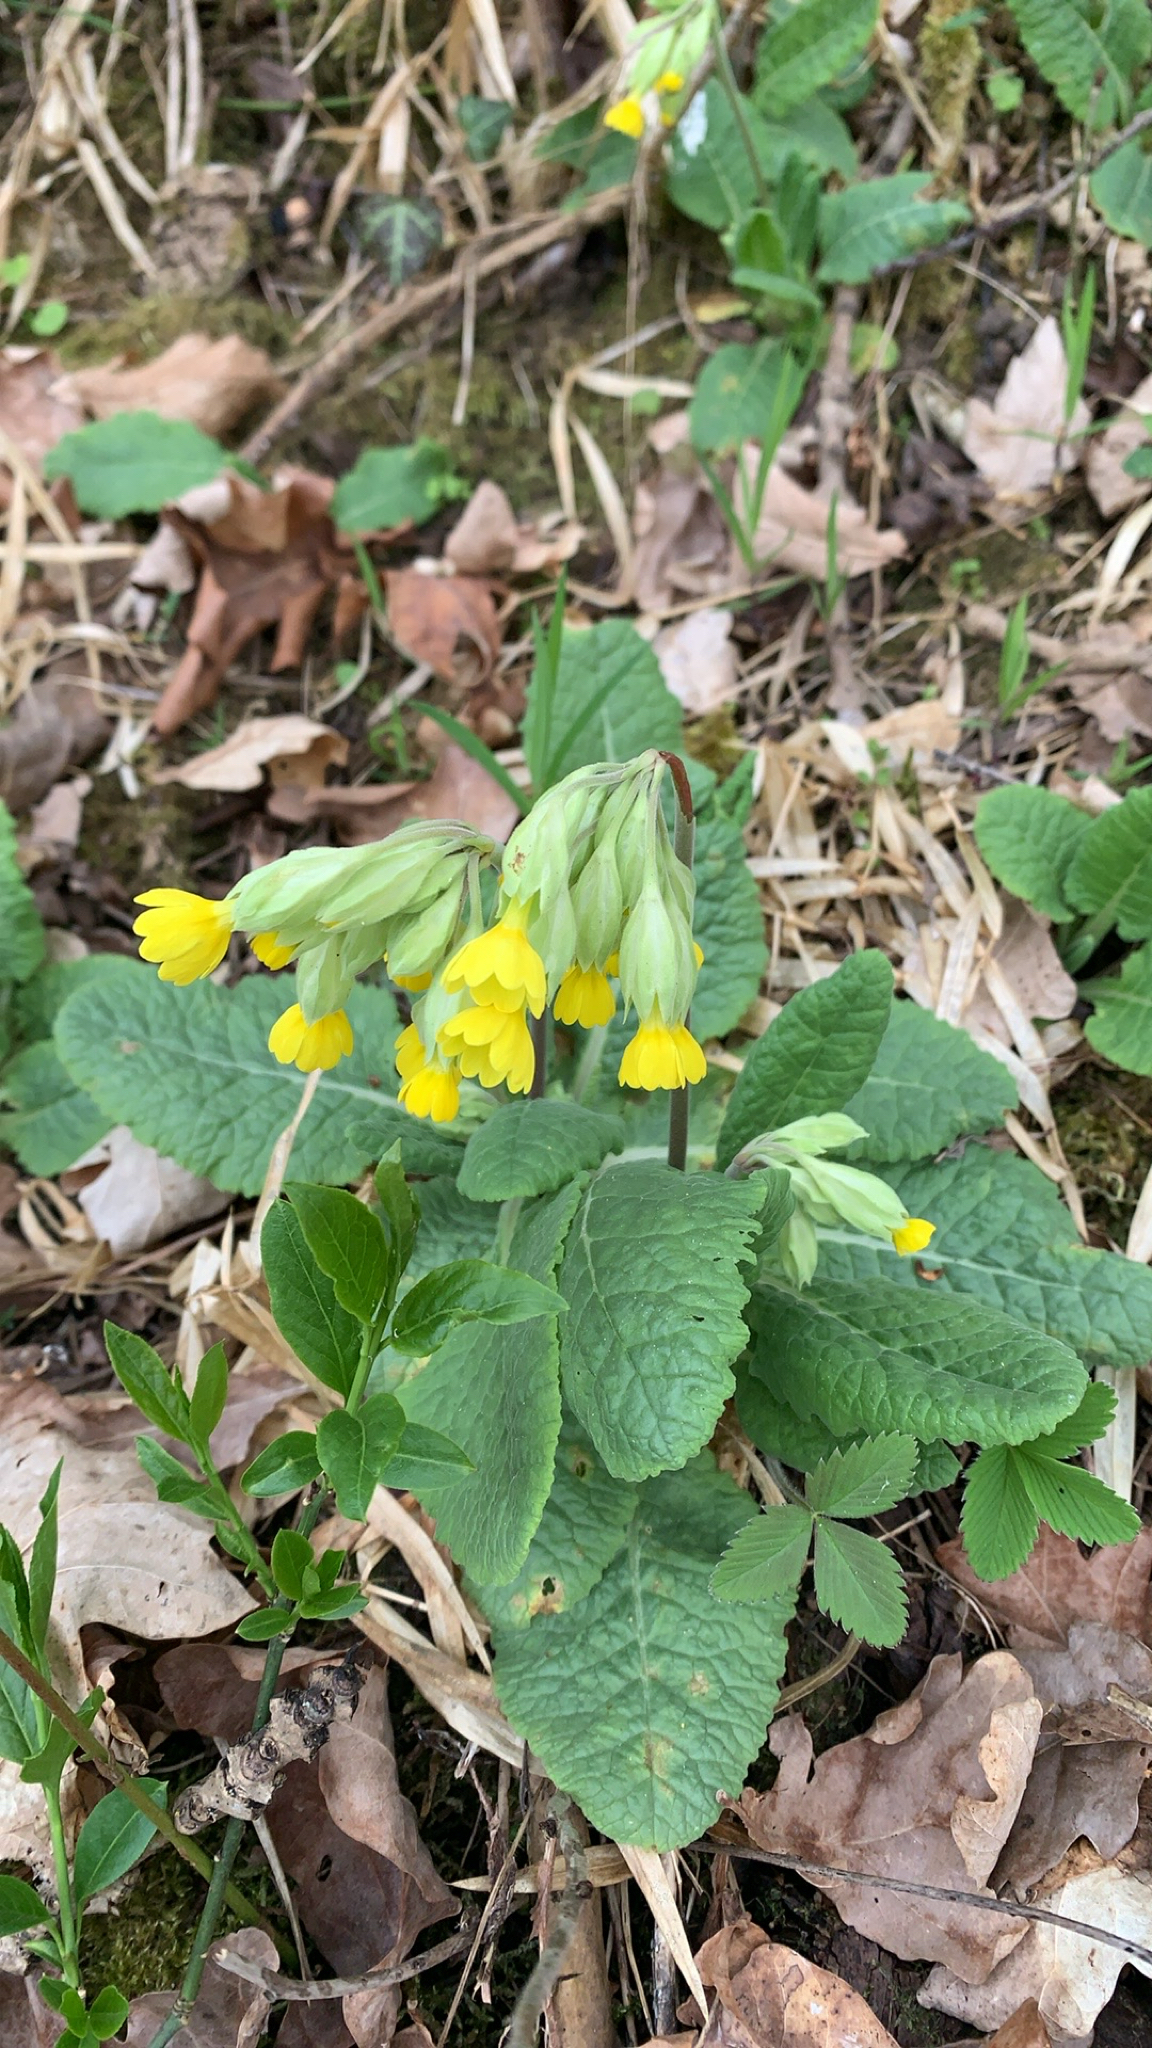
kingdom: Plantae
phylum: Tracheophyta
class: Magnoliopsida
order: Ericales
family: Primulaceae
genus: Primula
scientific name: Primula veris
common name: Cowslip
